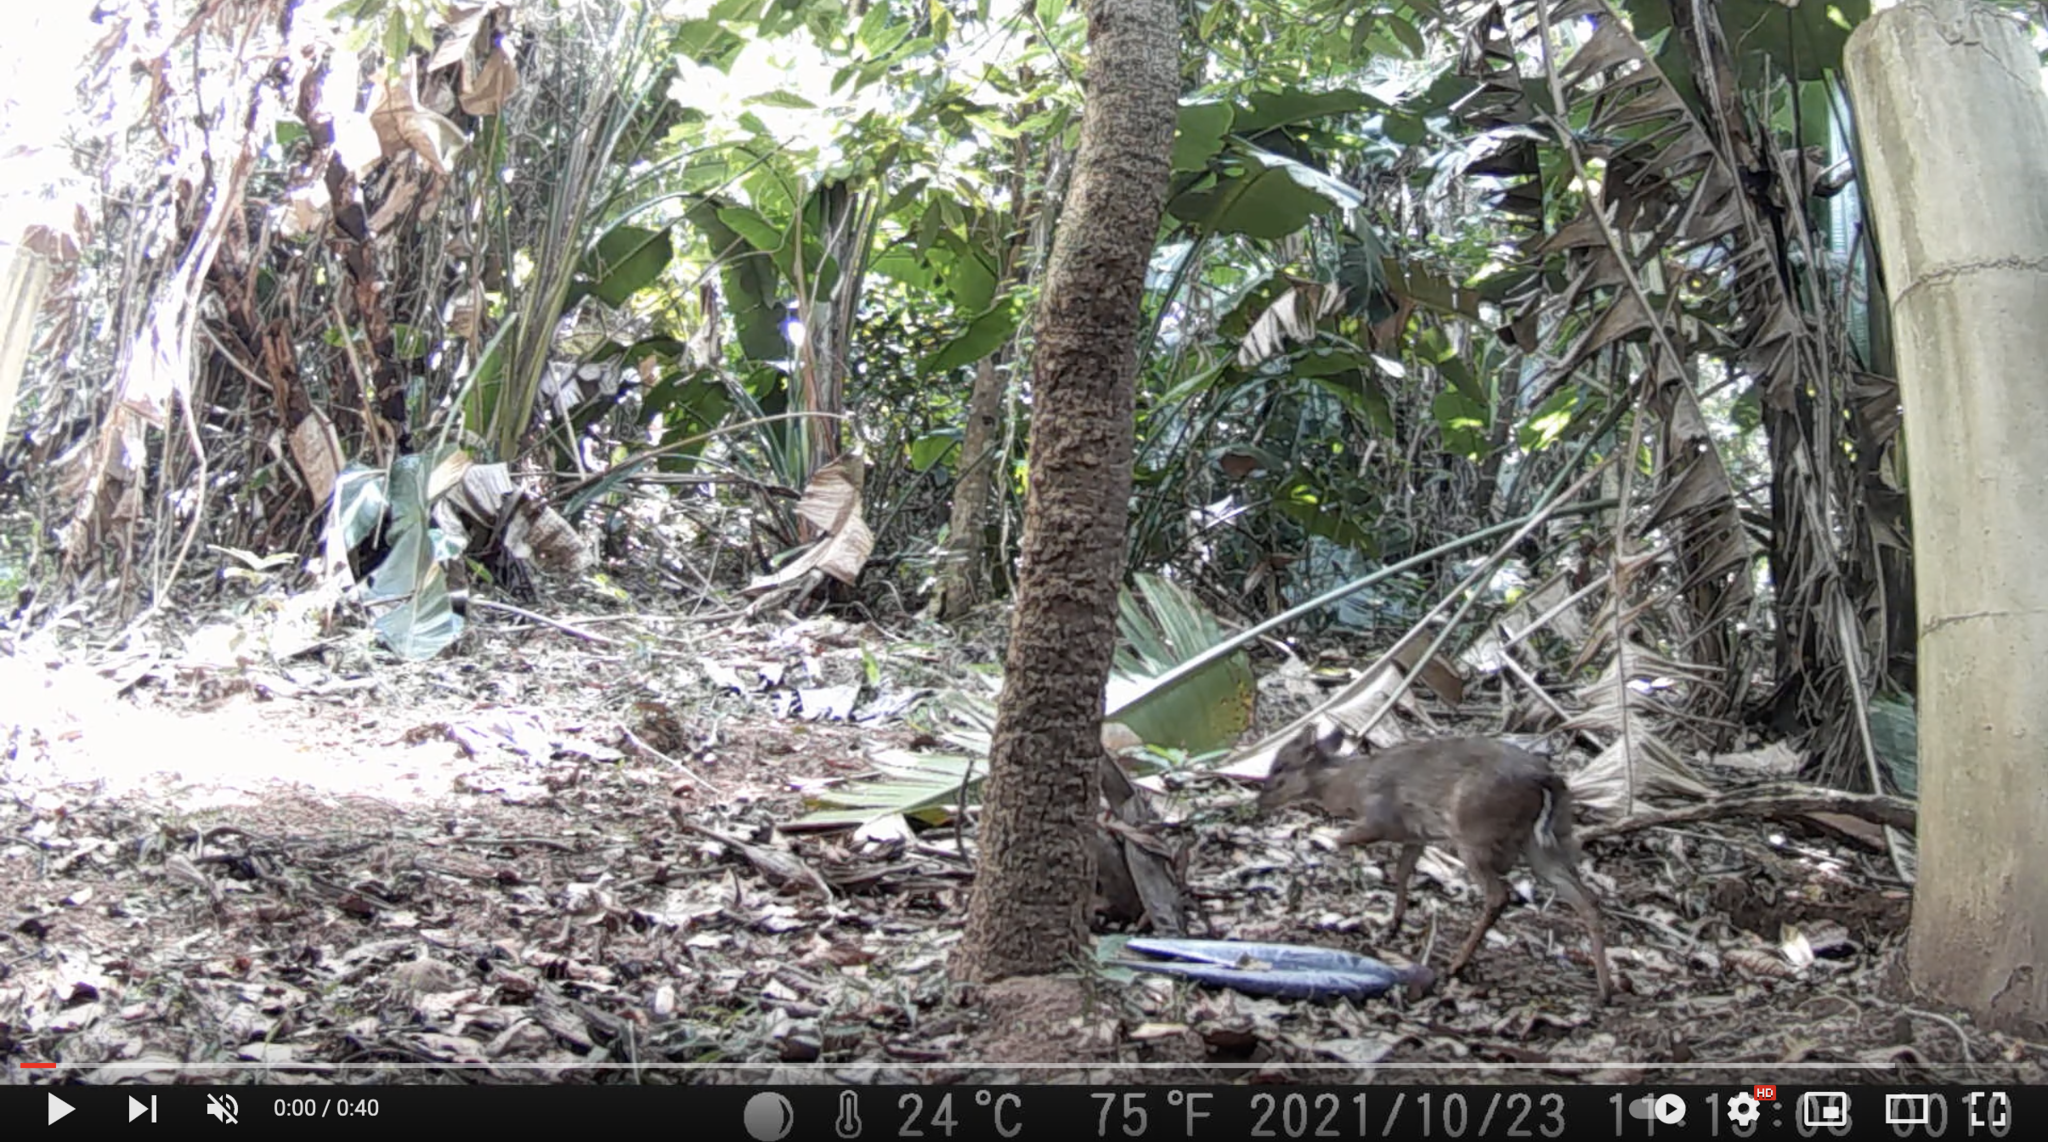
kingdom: Animalia
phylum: Chordata
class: Mammalia
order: Artiodactyla
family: Bovidae
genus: Philantomba
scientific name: Philantomba monticola
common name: Blue duiker
